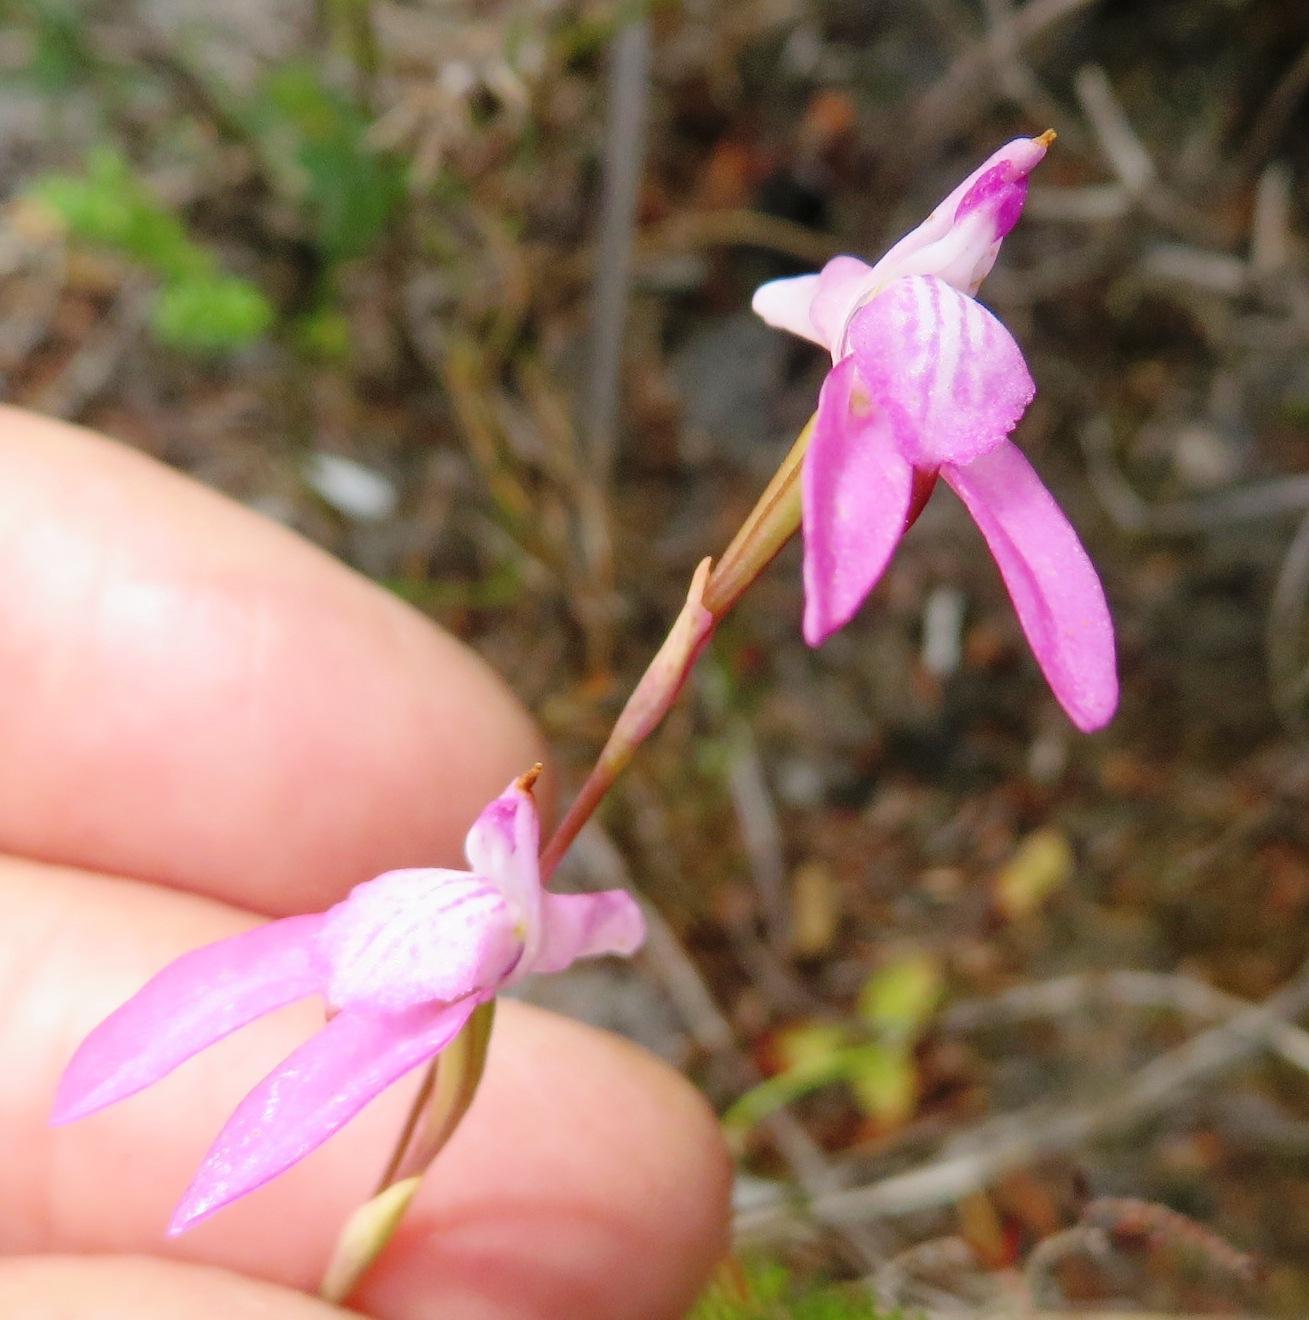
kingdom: Plantae
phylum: Tracheophyta
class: Liliopsida
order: Asparagales
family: Orchidaceae
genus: Disa
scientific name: Disa inflexa
